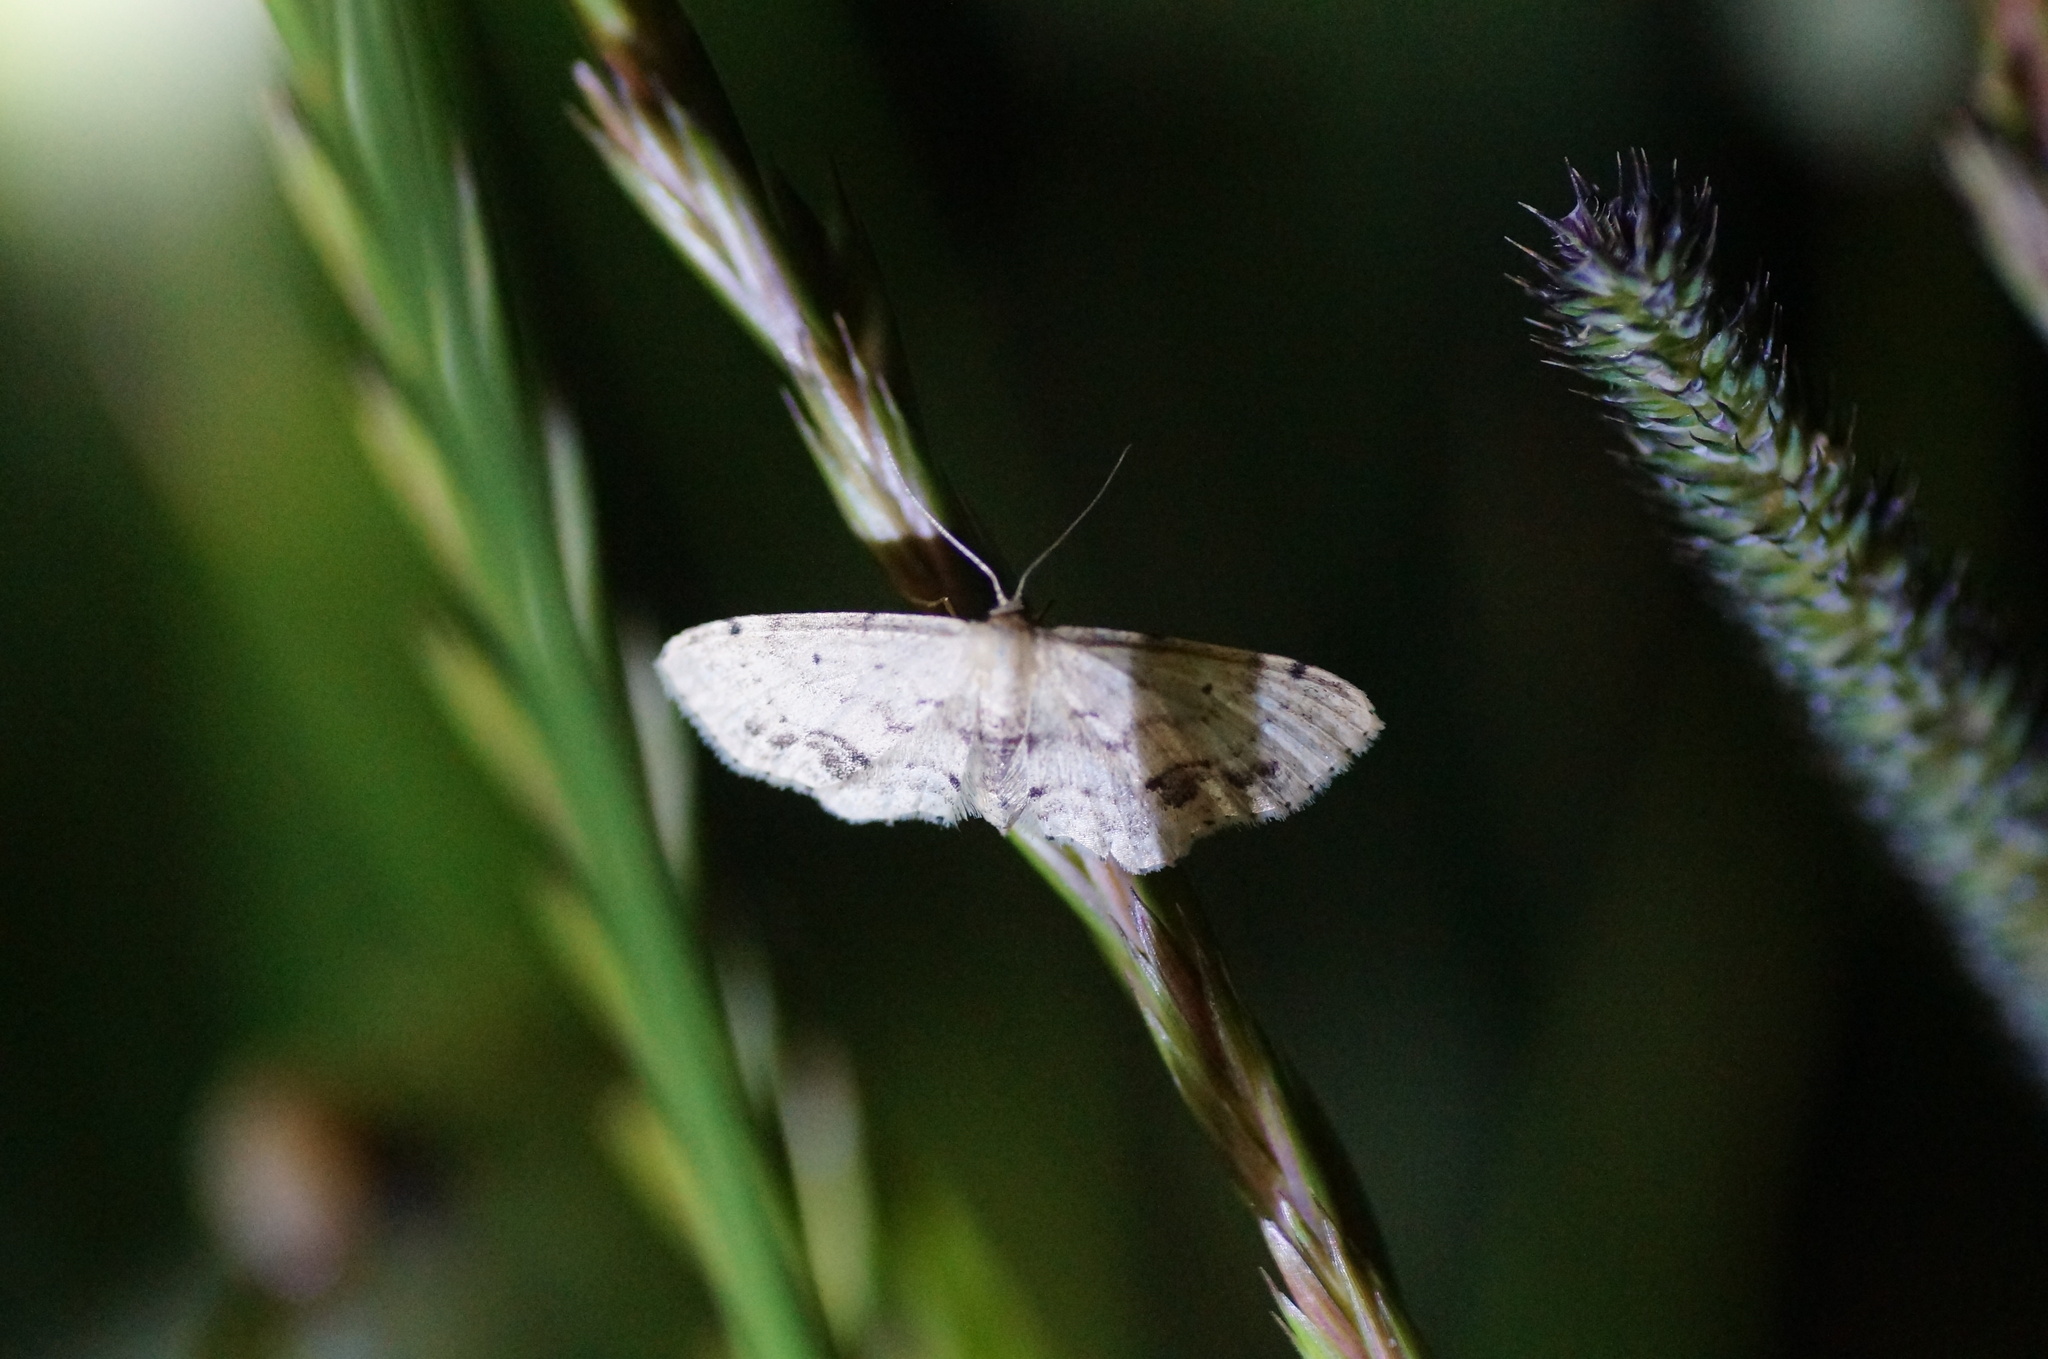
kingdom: Animalia
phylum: Arthropoda
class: Insecta
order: Lepidoptera
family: Geometridae
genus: Idaea
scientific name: Idaea dimidiata
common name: Single-dotted wave
